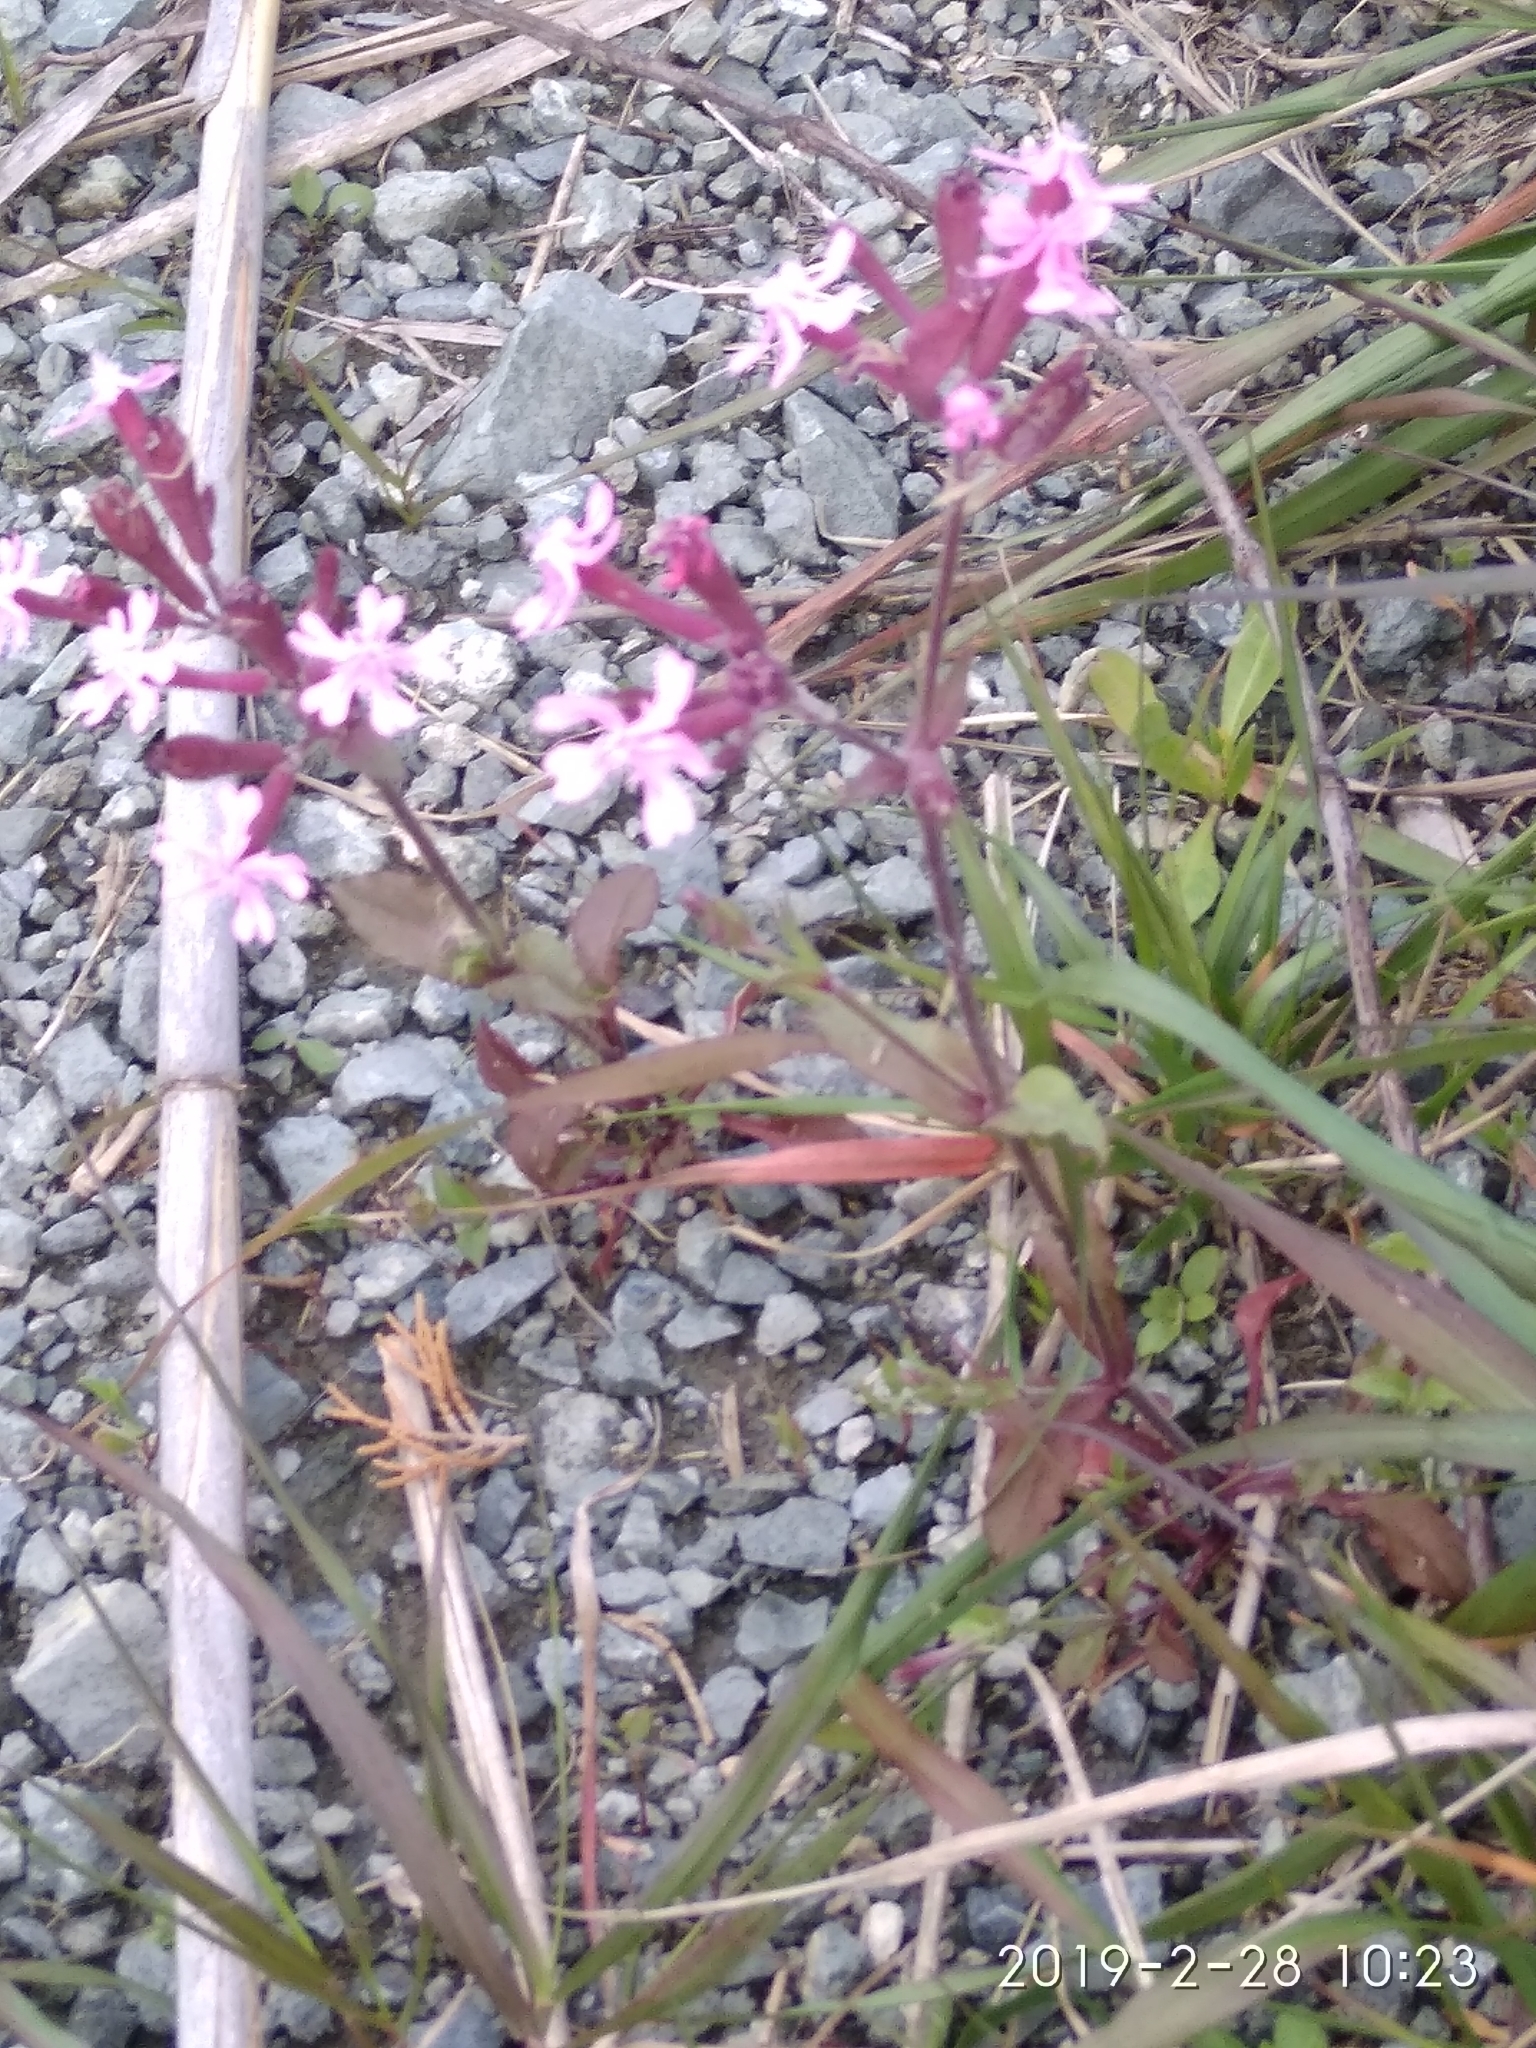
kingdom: Plantae
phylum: Tracheophyta
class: Magnoliopsida
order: Caryophyllales
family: Caryophyllaceae
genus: Silene
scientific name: Silene aegyptiaca
